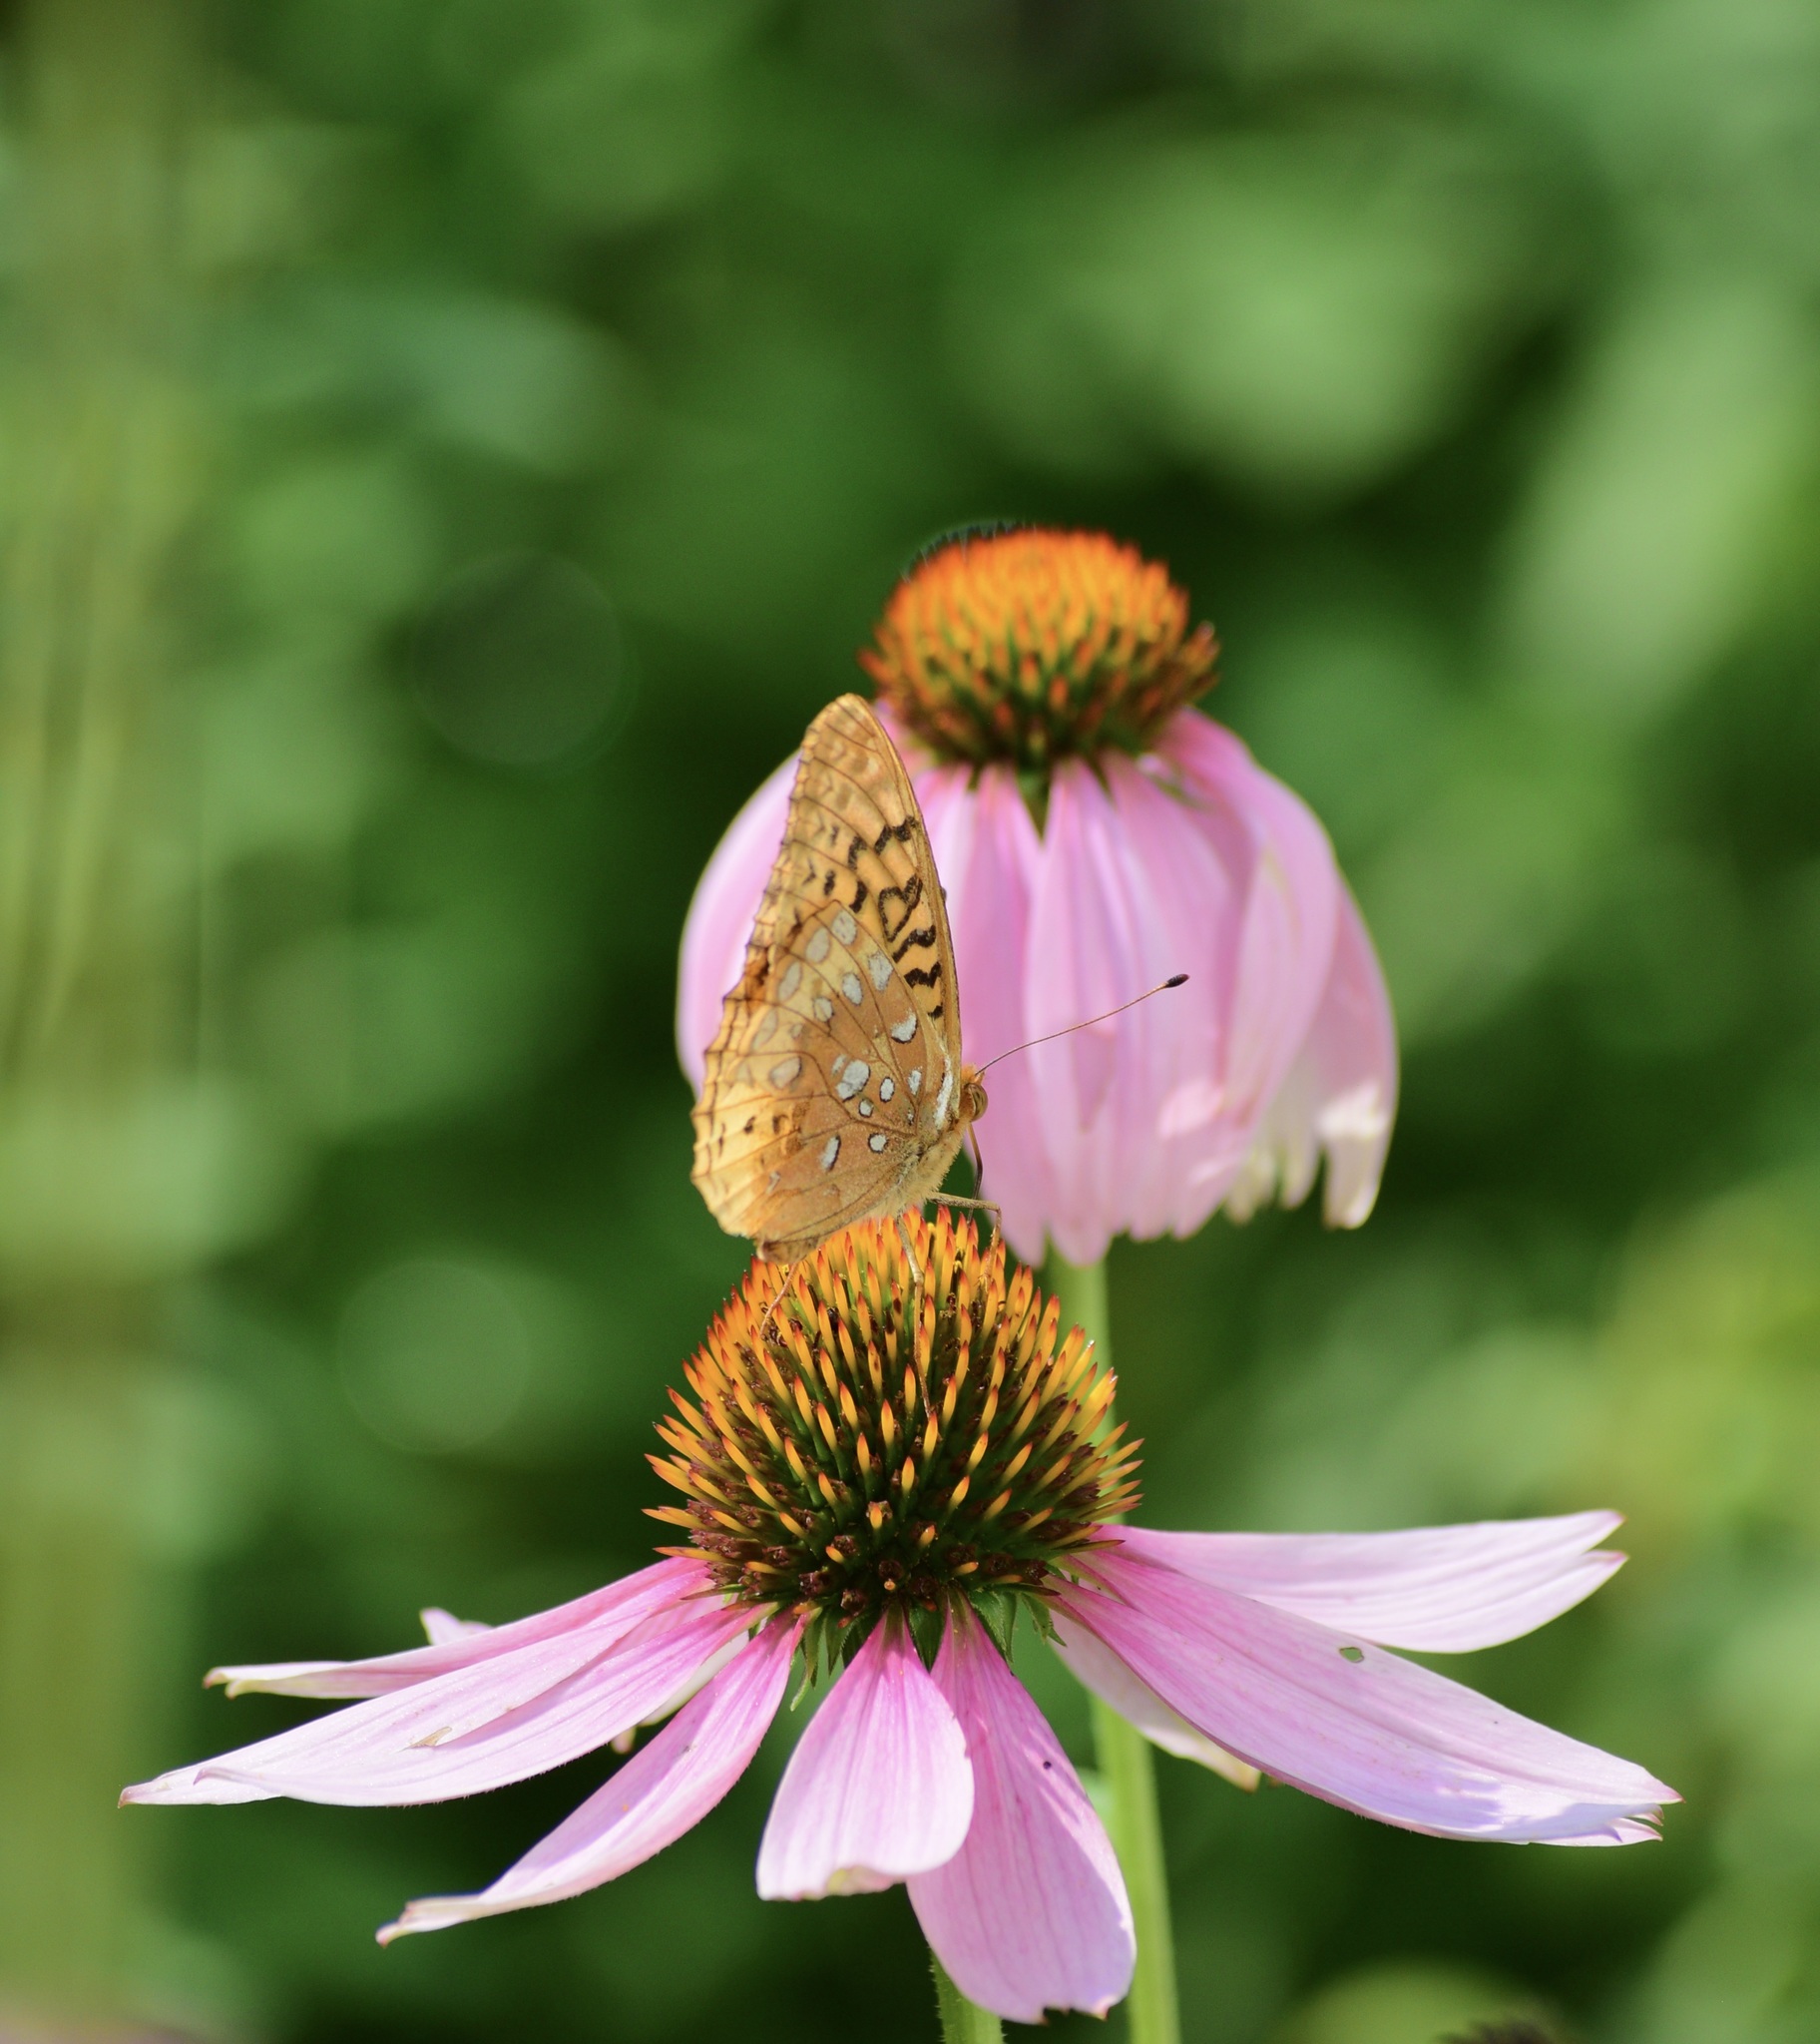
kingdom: Animalia
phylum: Arthropoda
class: Insecta
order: Lepidoptera
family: Nymphalidae
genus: Speyeria
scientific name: Speyeria cybele
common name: Great spangled fritillary
